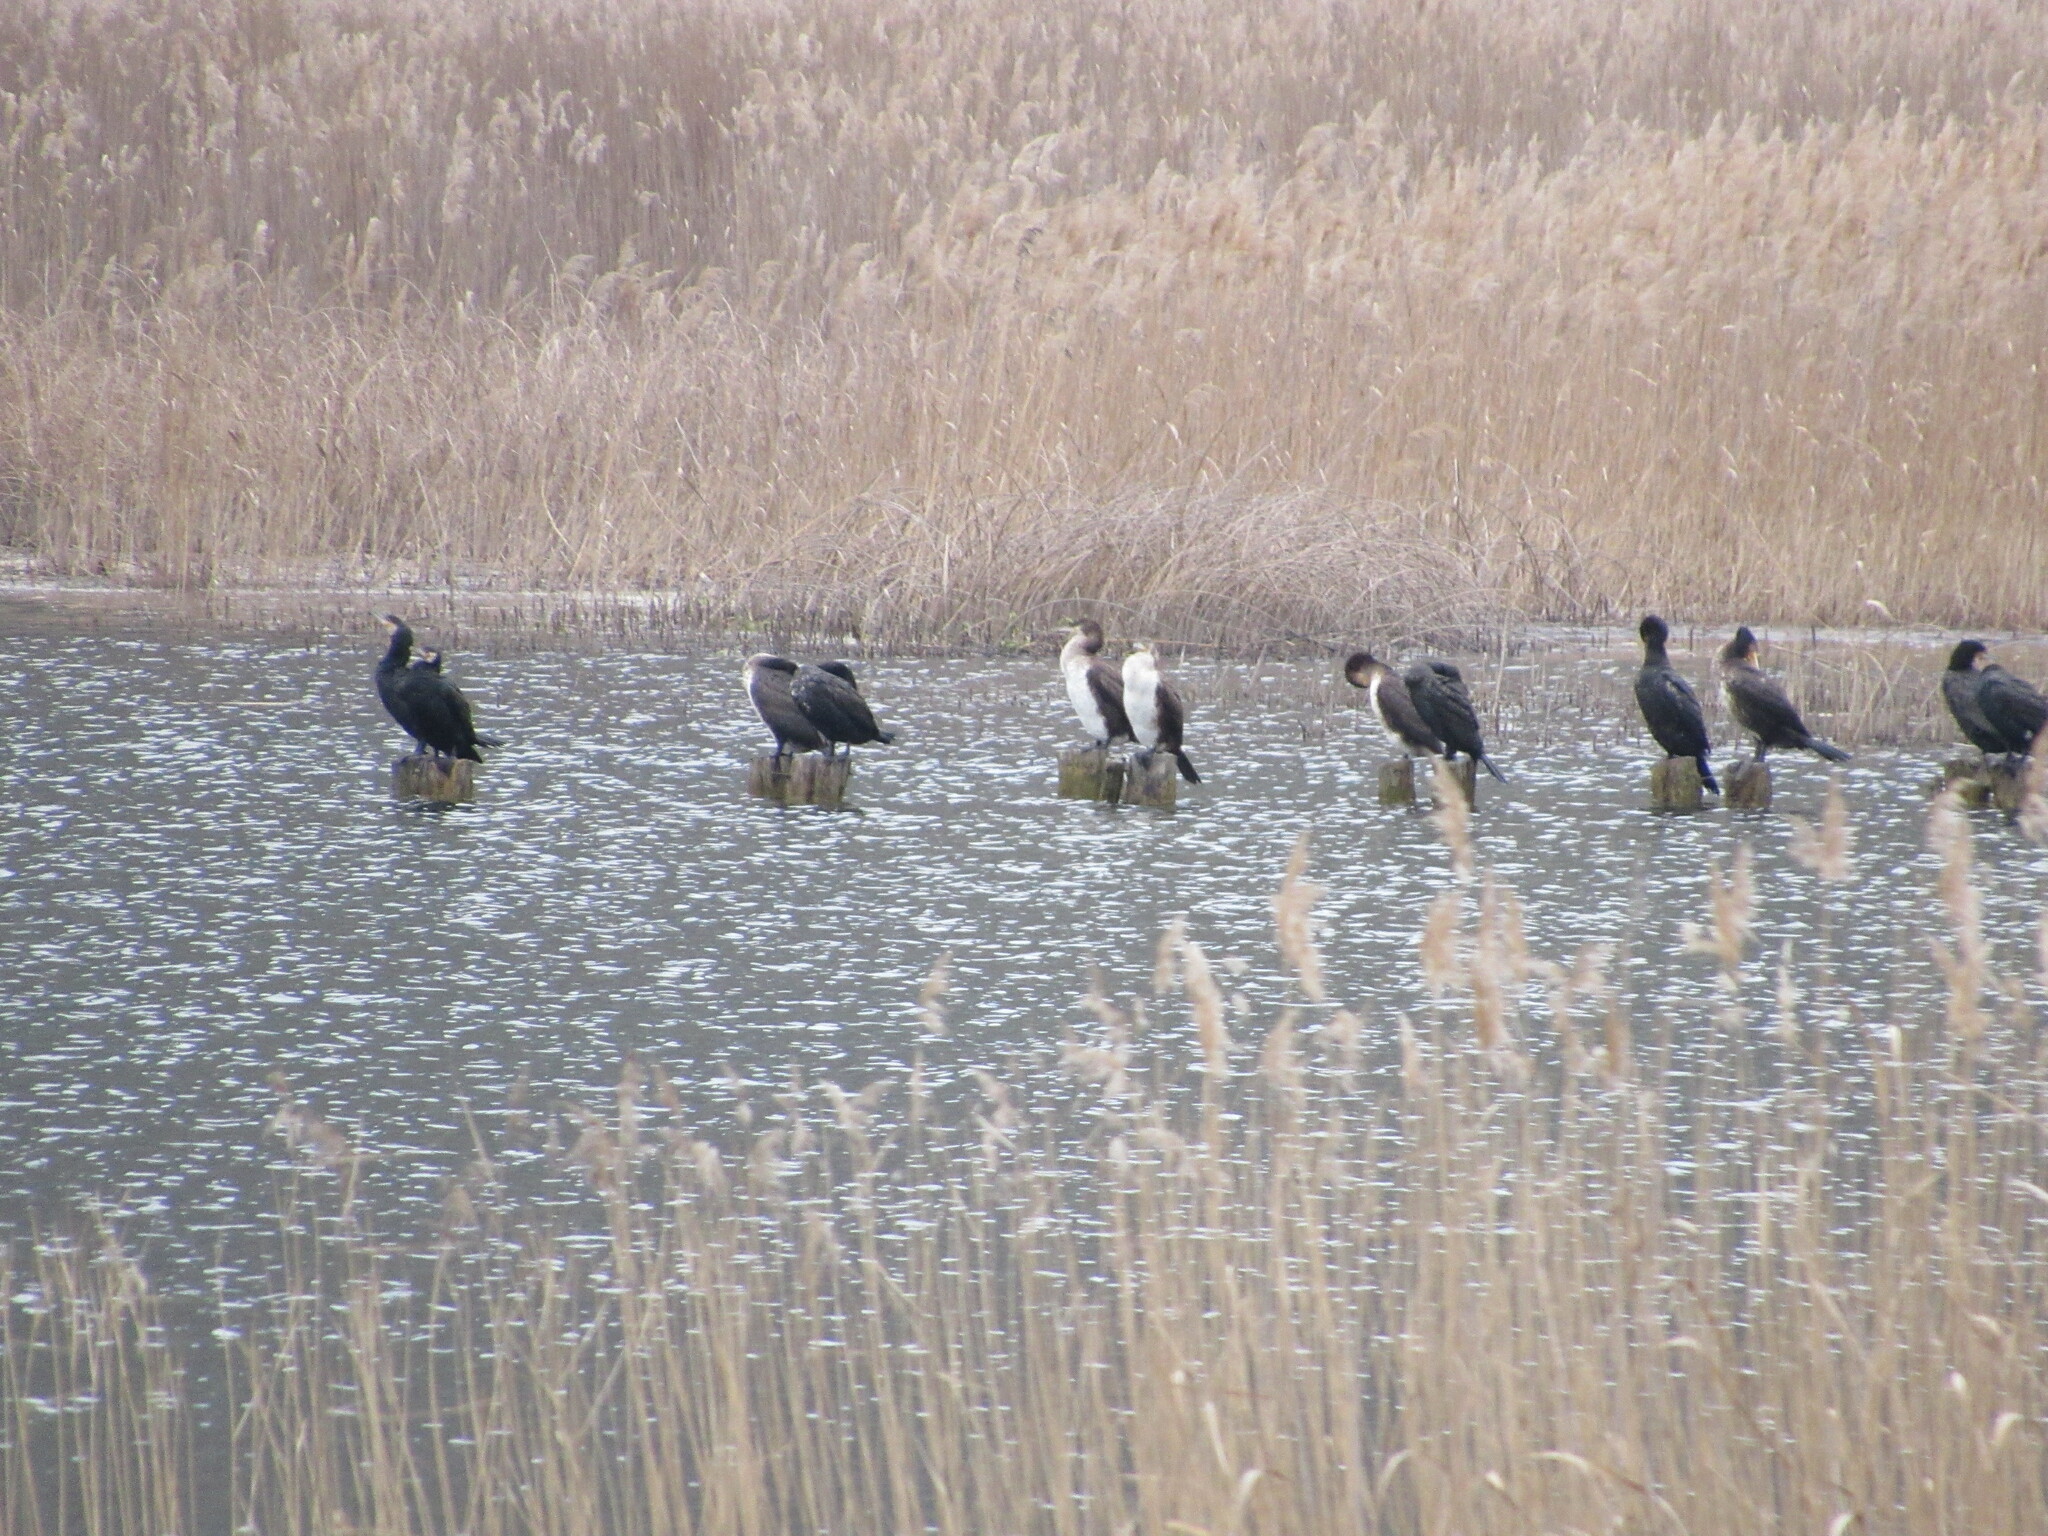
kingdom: Animalia
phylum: Chordata
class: Aves
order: Suliformes
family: Phalacrocoracidae
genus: Phalacrocorax
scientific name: Phalacrocorax carbo
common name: Great cormorant
